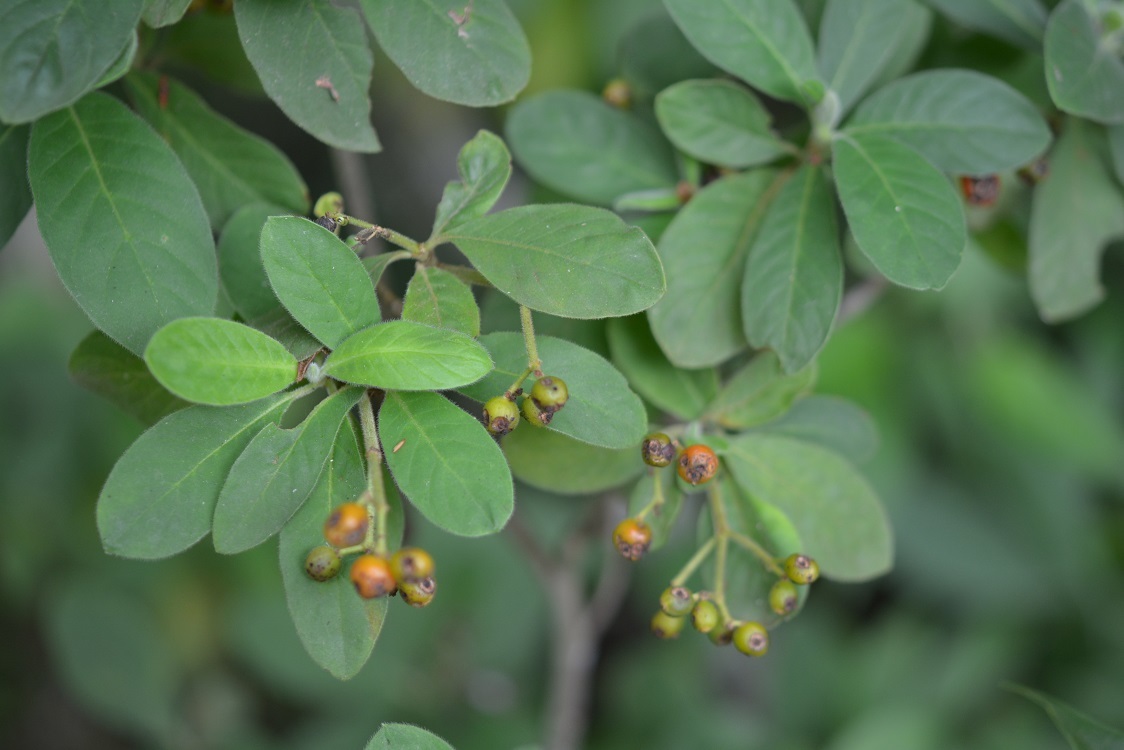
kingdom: Plantae
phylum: Tracheophyta
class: Magnoliopsida
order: Gentianales
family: Rubiaceae
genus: Psychotria
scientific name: Psychotria erythrocarpa
